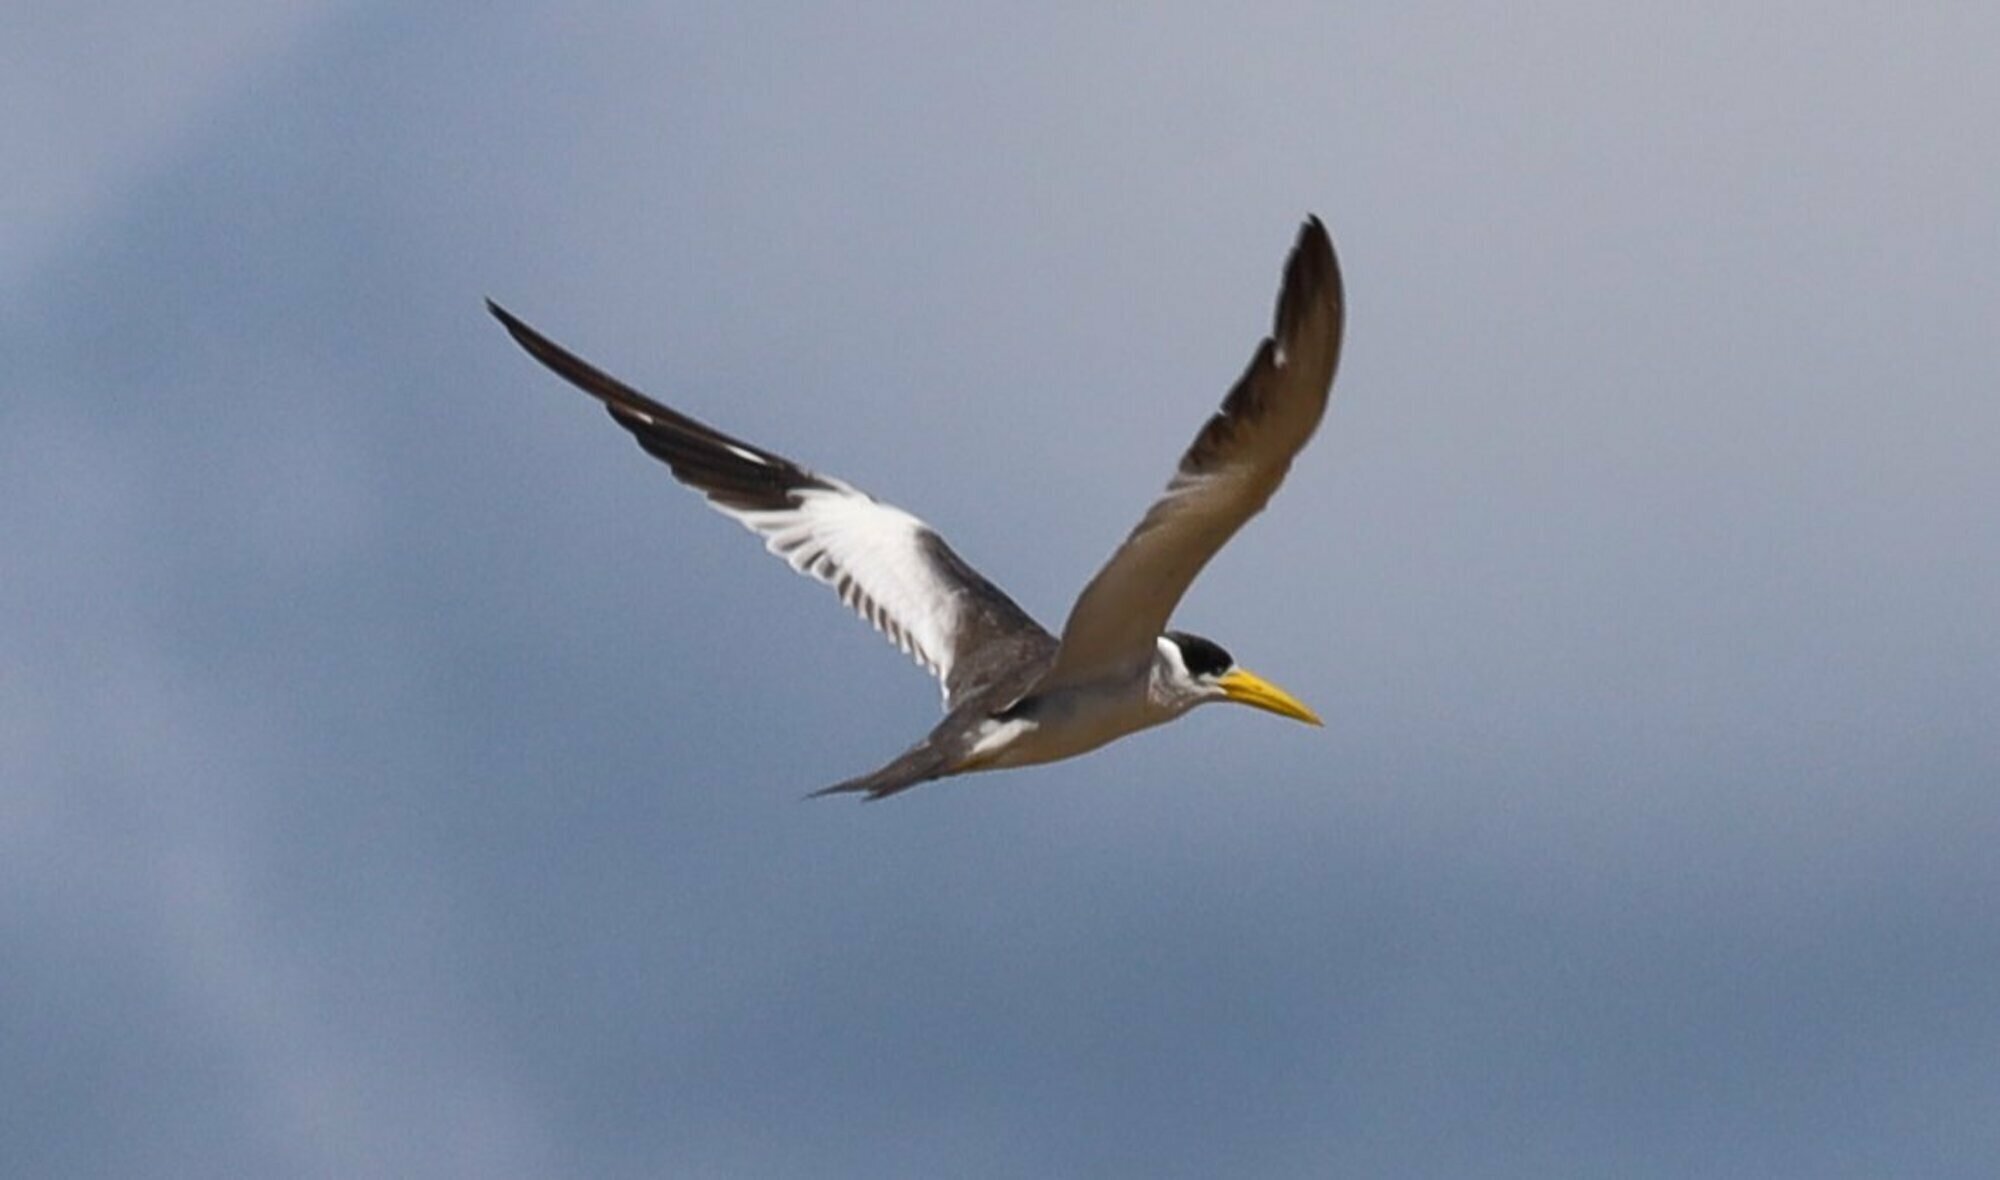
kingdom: Animalia
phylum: Chordata
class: Aves
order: Charadriiformes
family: Laridae
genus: Phaetusa
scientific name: Phaetusa simplex
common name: Large-billed tern
